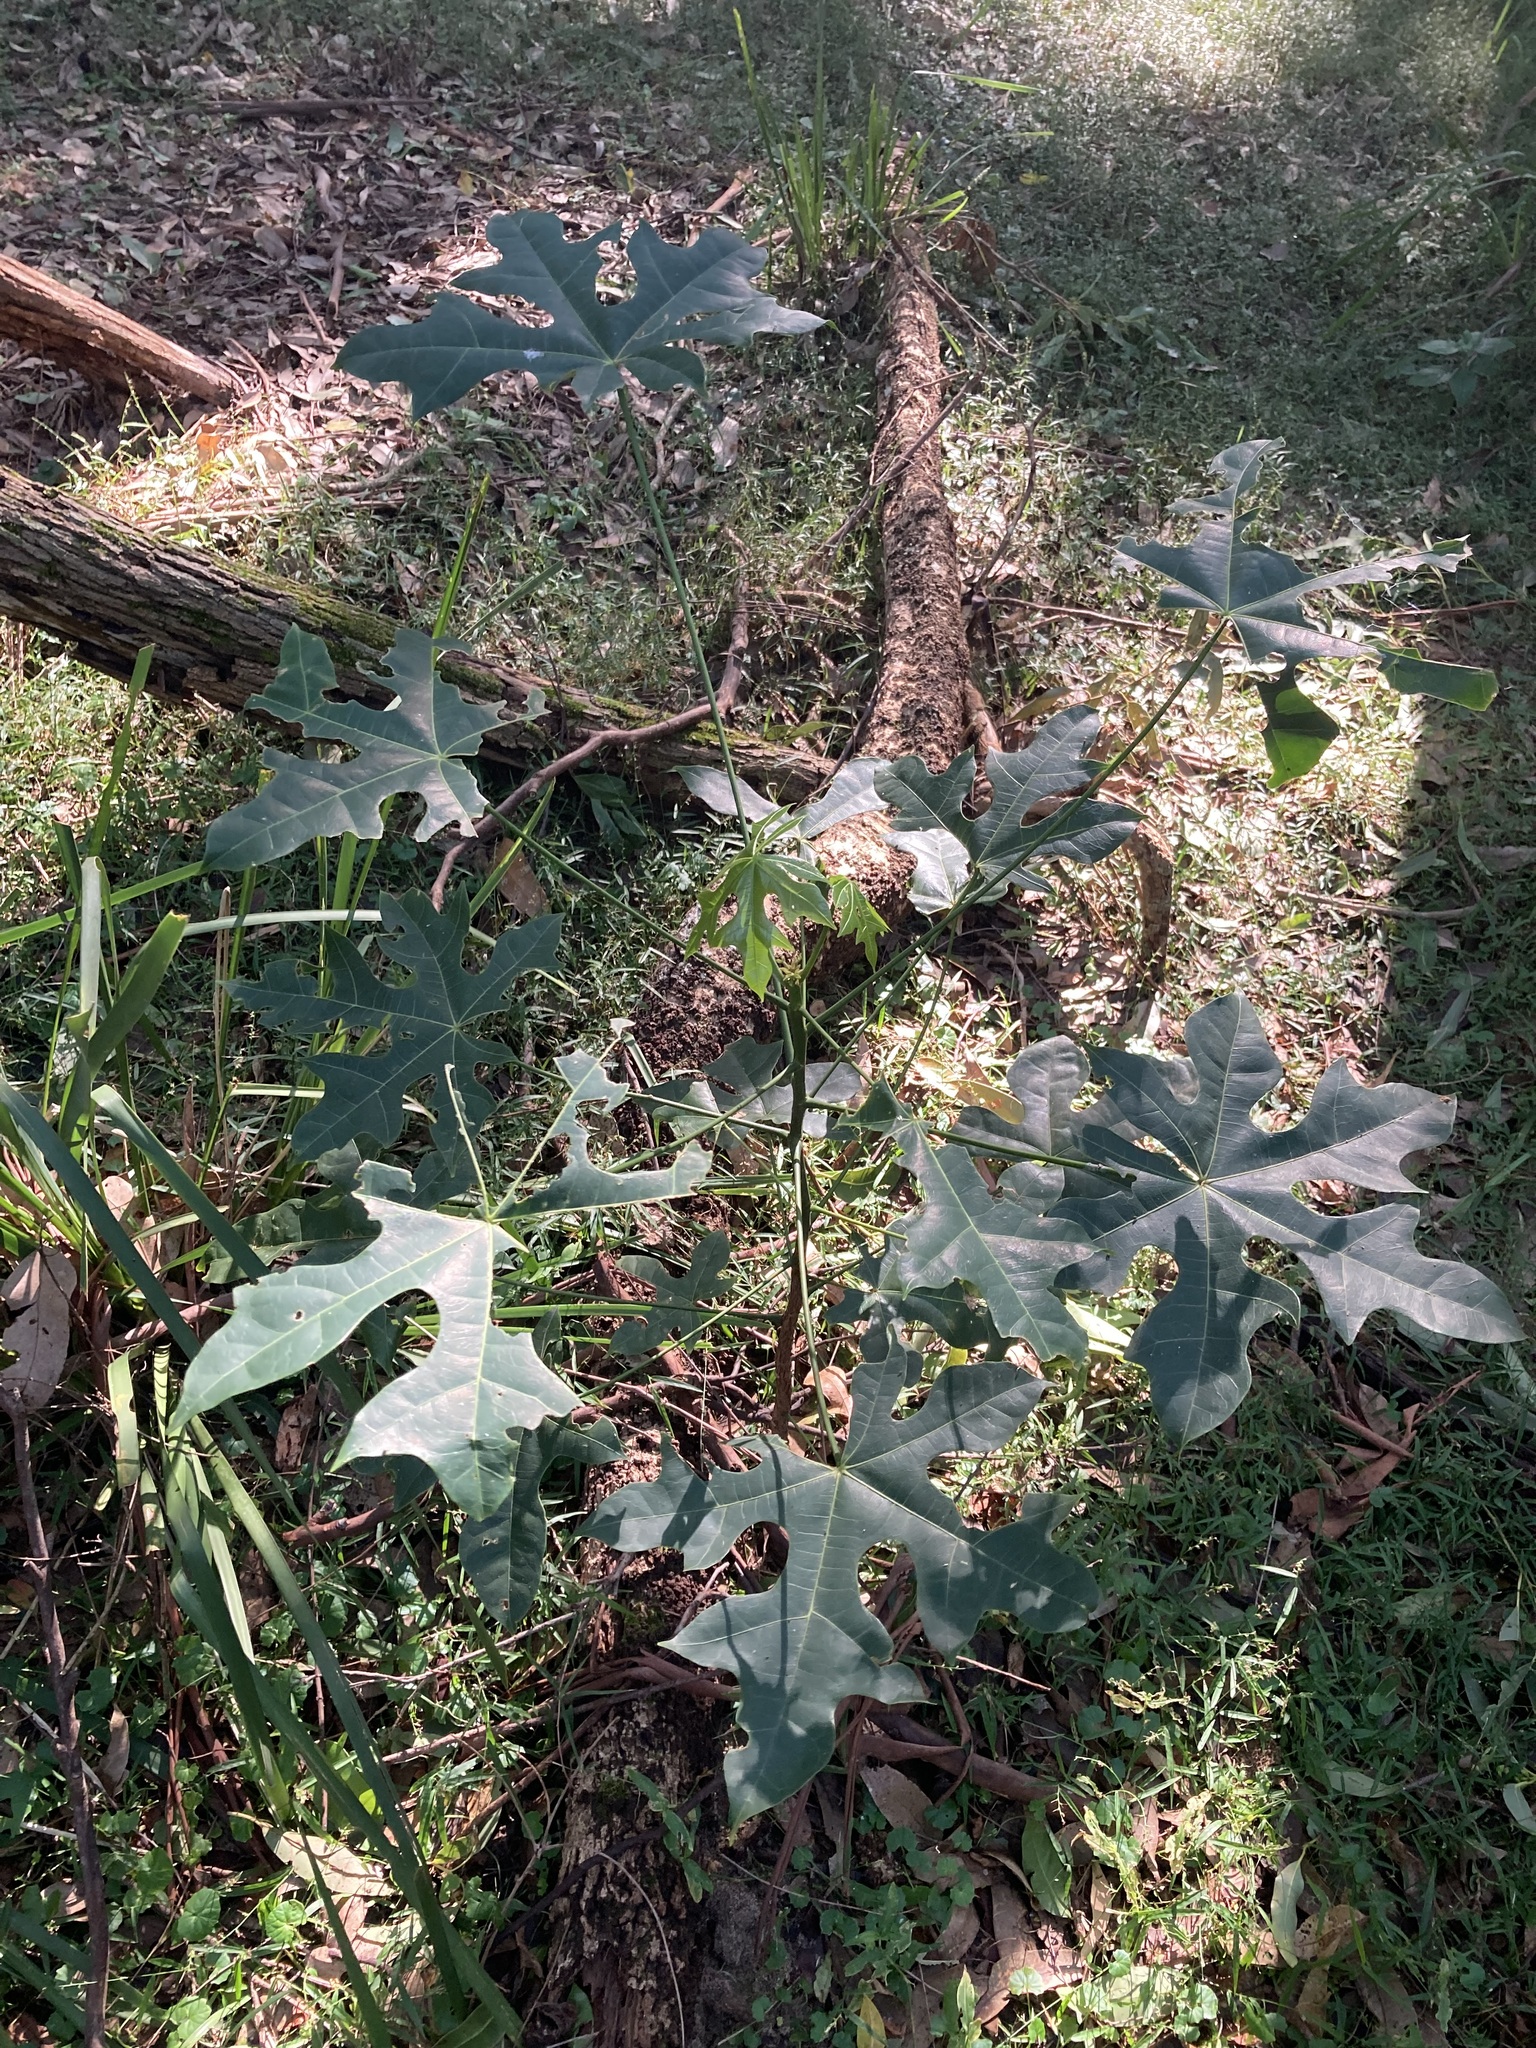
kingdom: Plantae
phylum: Tracheophyta
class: Magnoliopsida
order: Malvales
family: Malvaceae
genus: Brachychiton
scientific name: Brachychiton acerifolius
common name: Illawarra flame tree
